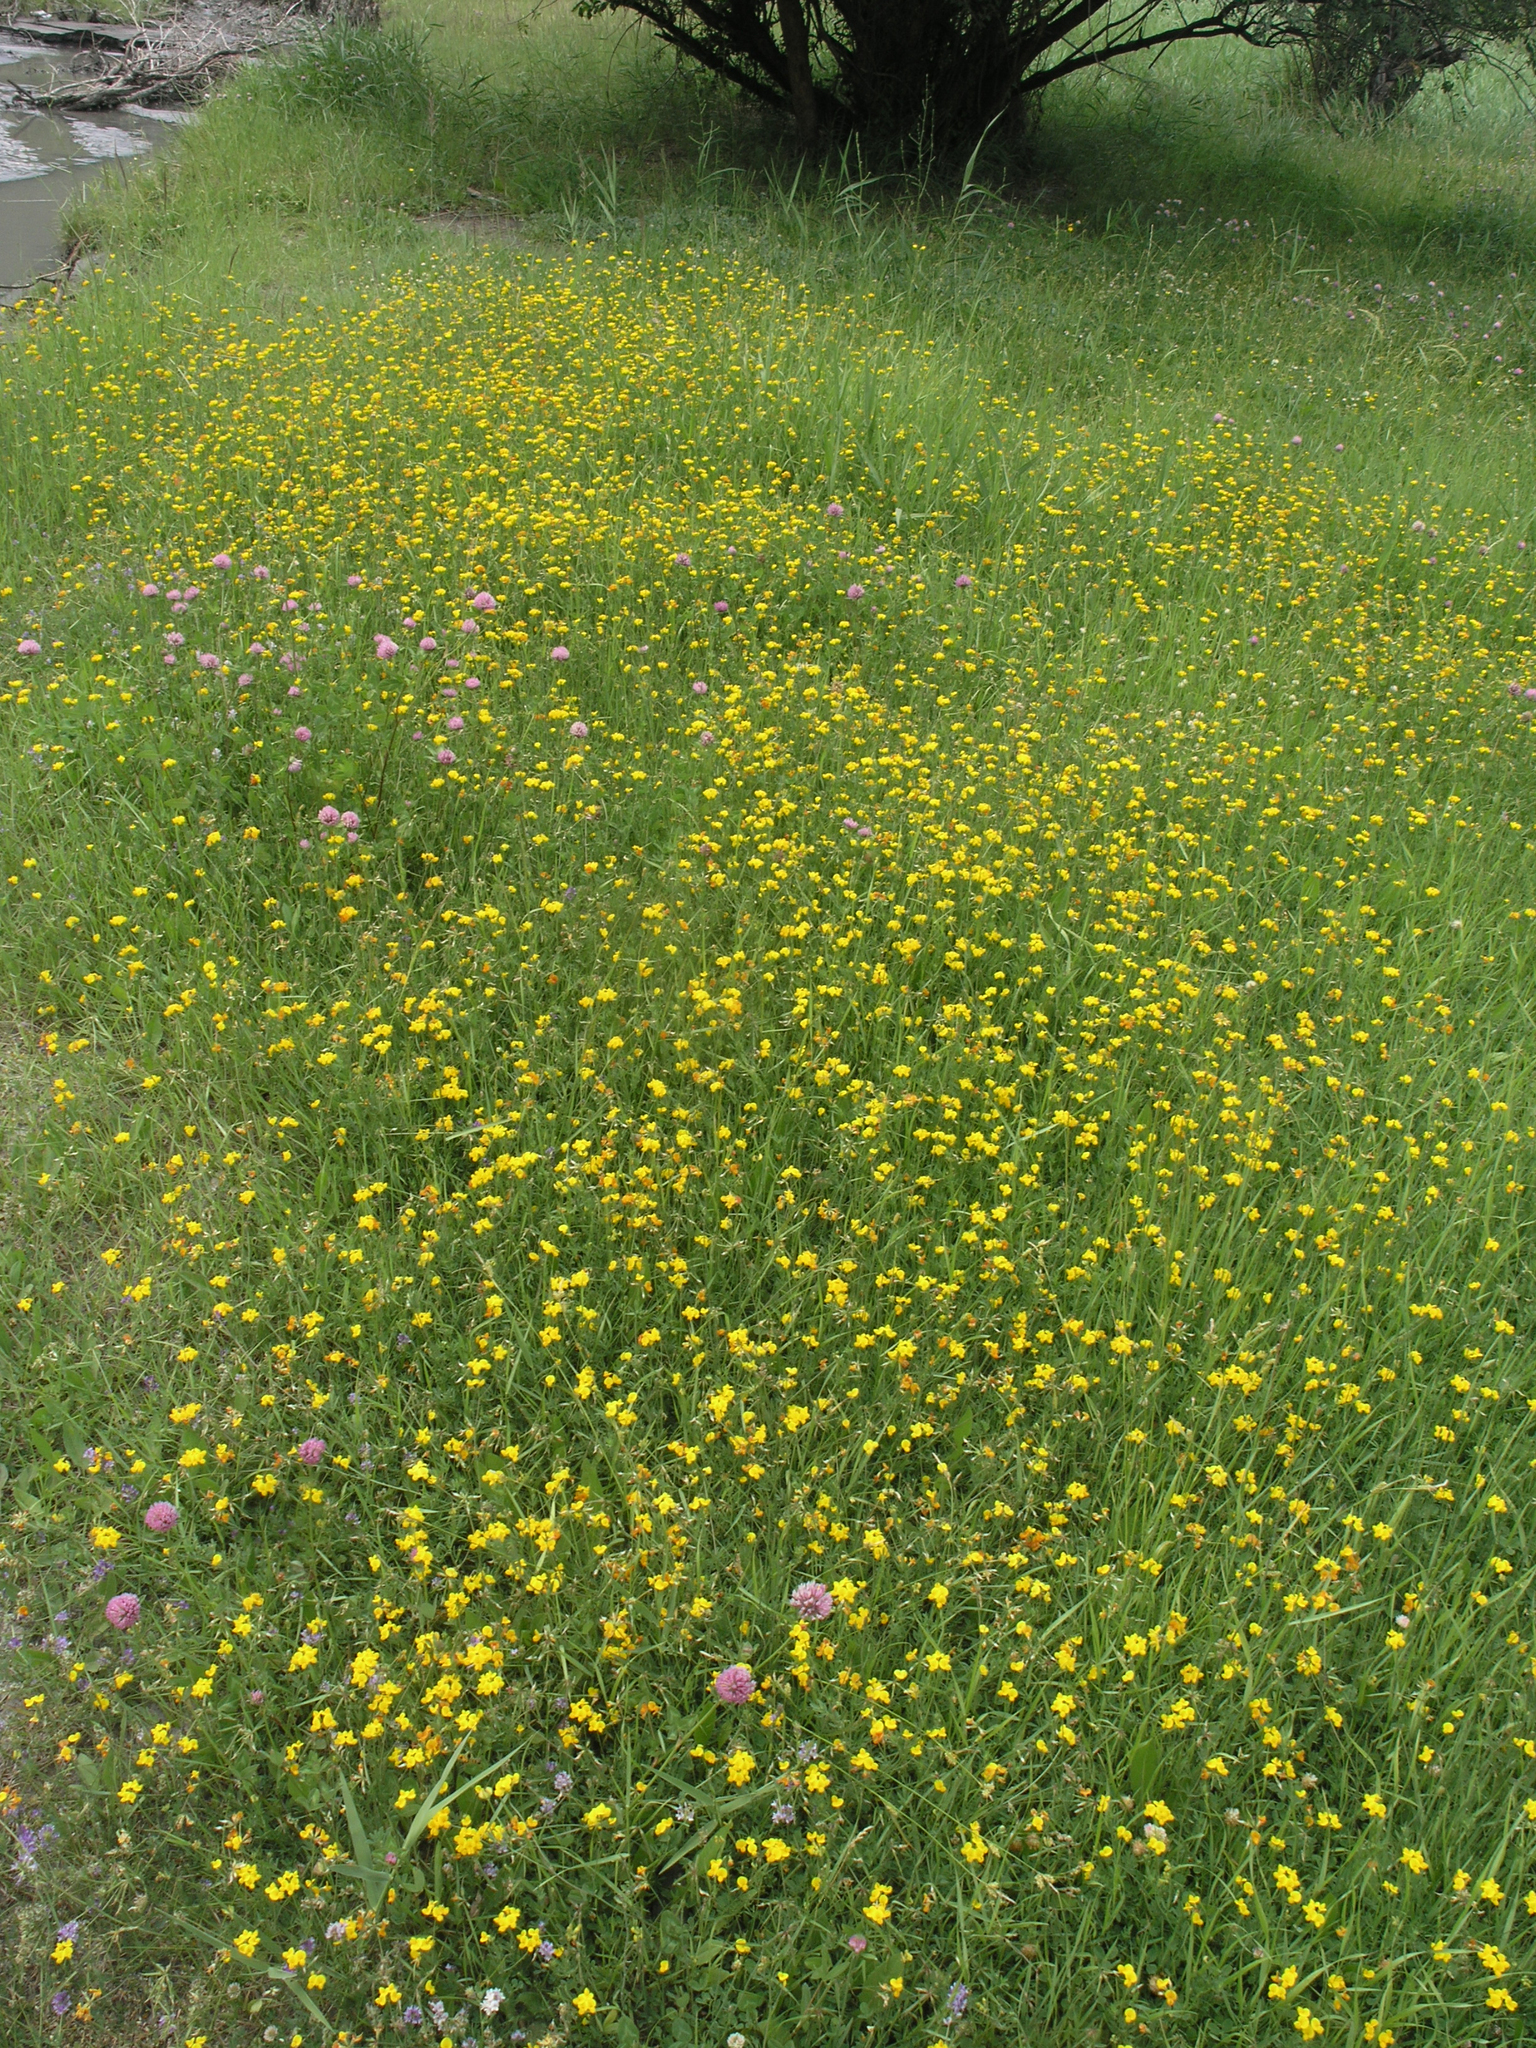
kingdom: Plantae
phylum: Tracheophyta
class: Magnoliopsida
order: Fabales
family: Fabaceae
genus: Lotus
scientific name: Lotus corniculatus
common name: Common bird's-foot-trefoil
